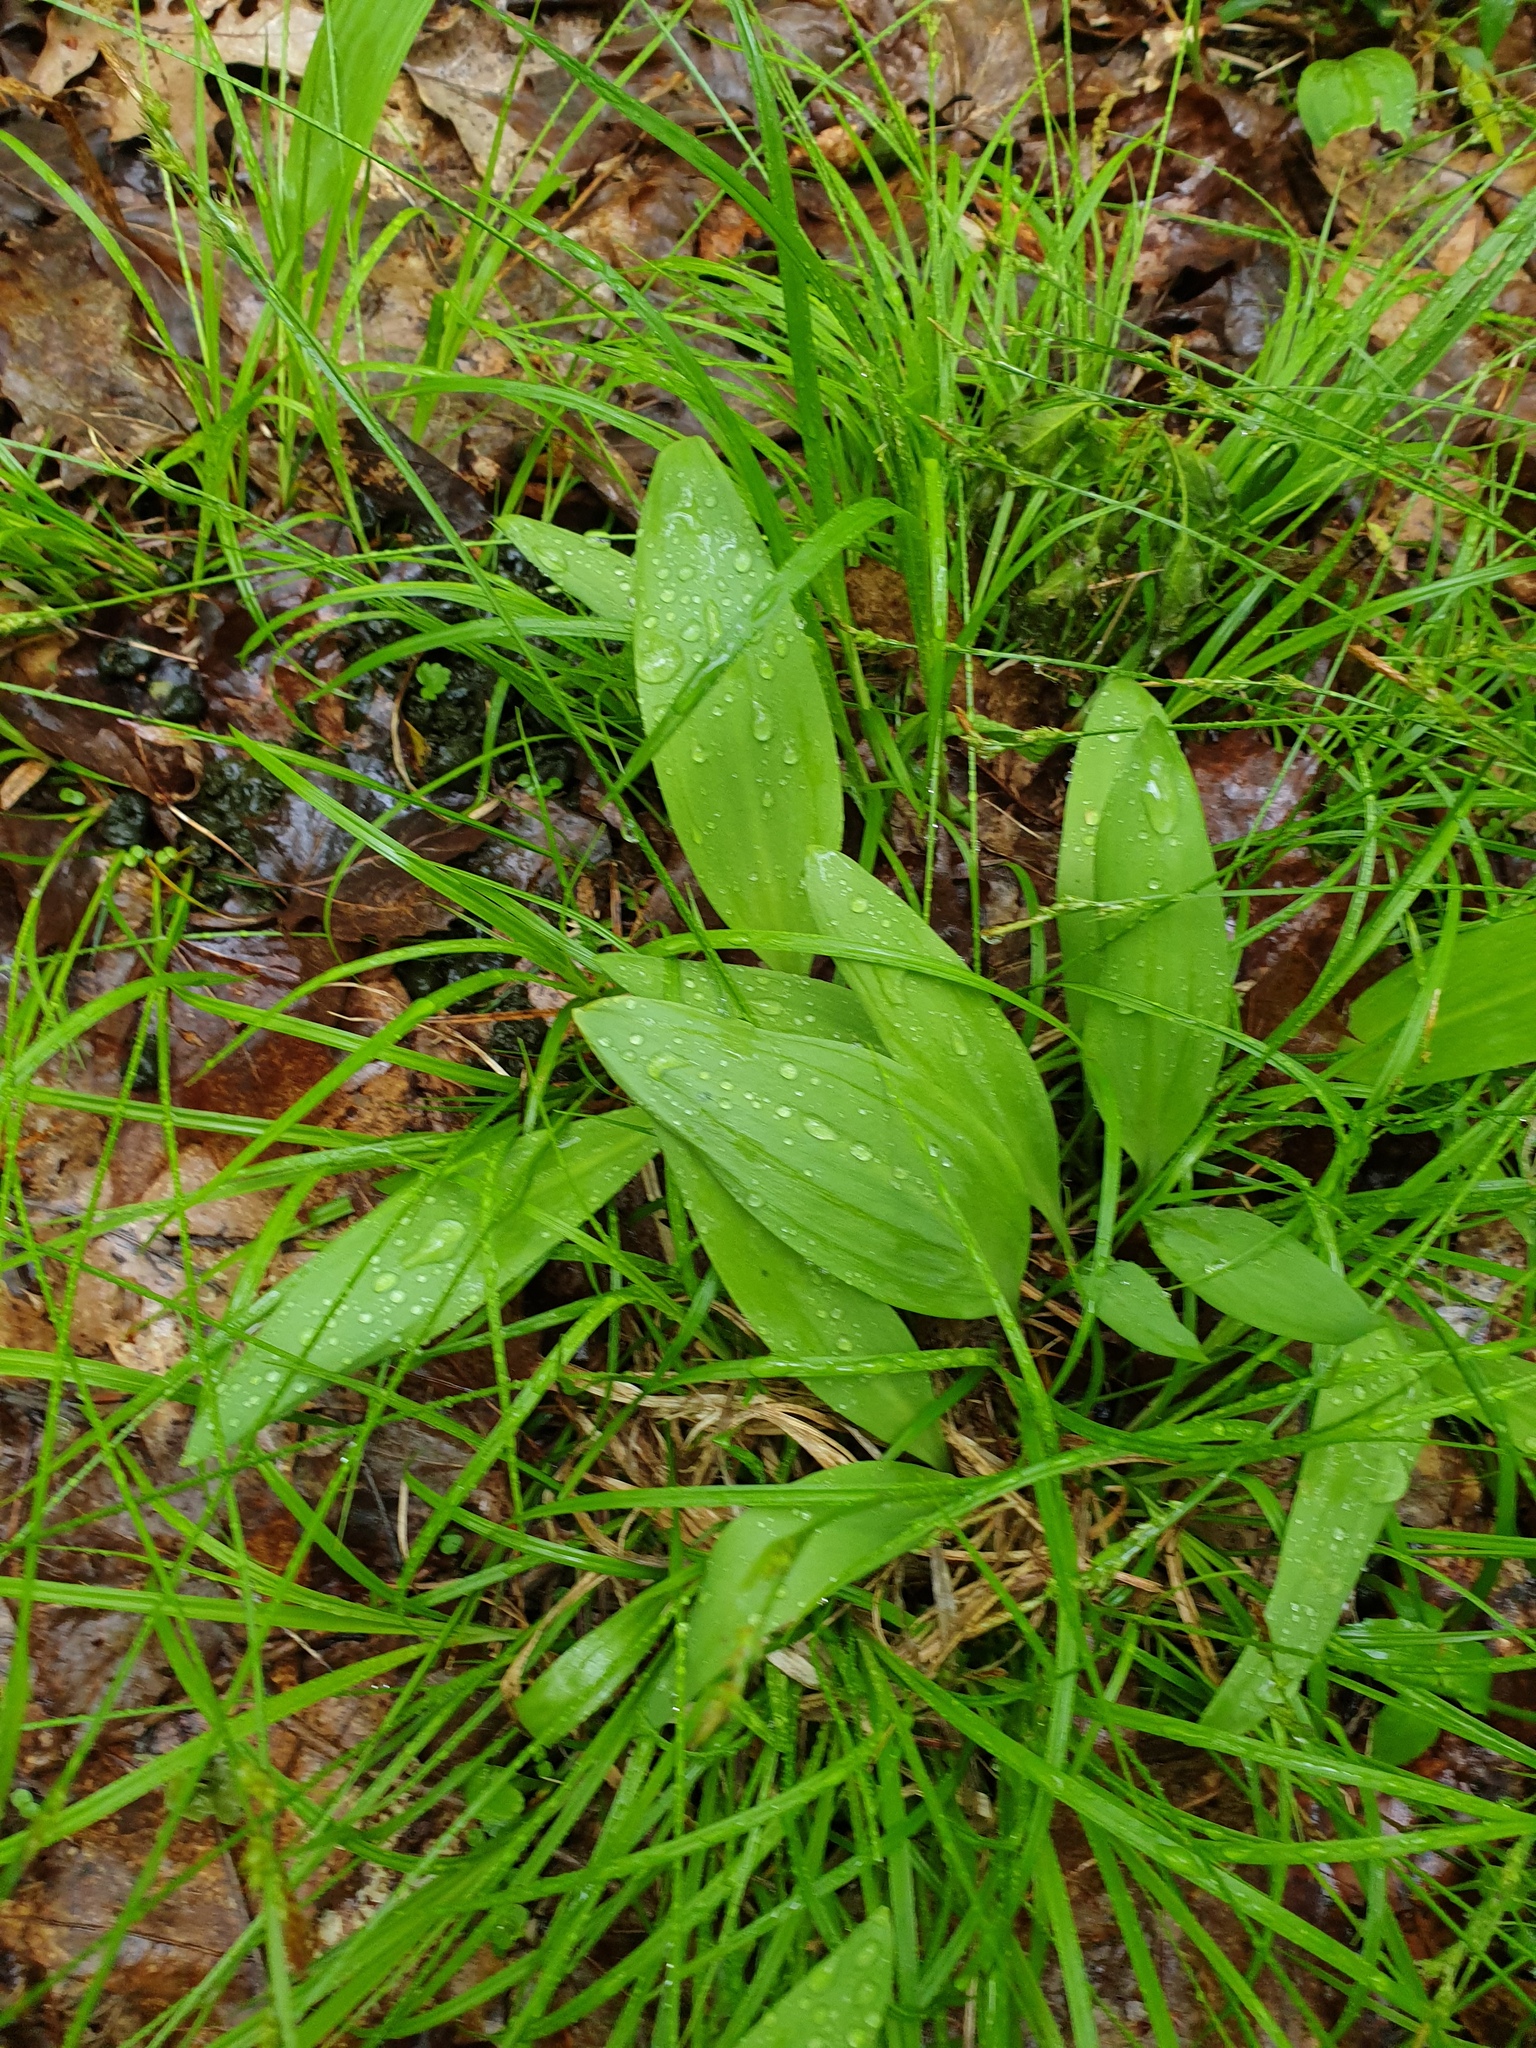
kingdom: Plantae
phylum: Tracheophyta
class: Liliopsida
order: Asparagales
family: Amaryllidaceae
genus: Allium
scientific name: Allium tricoccum
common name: Ramp
